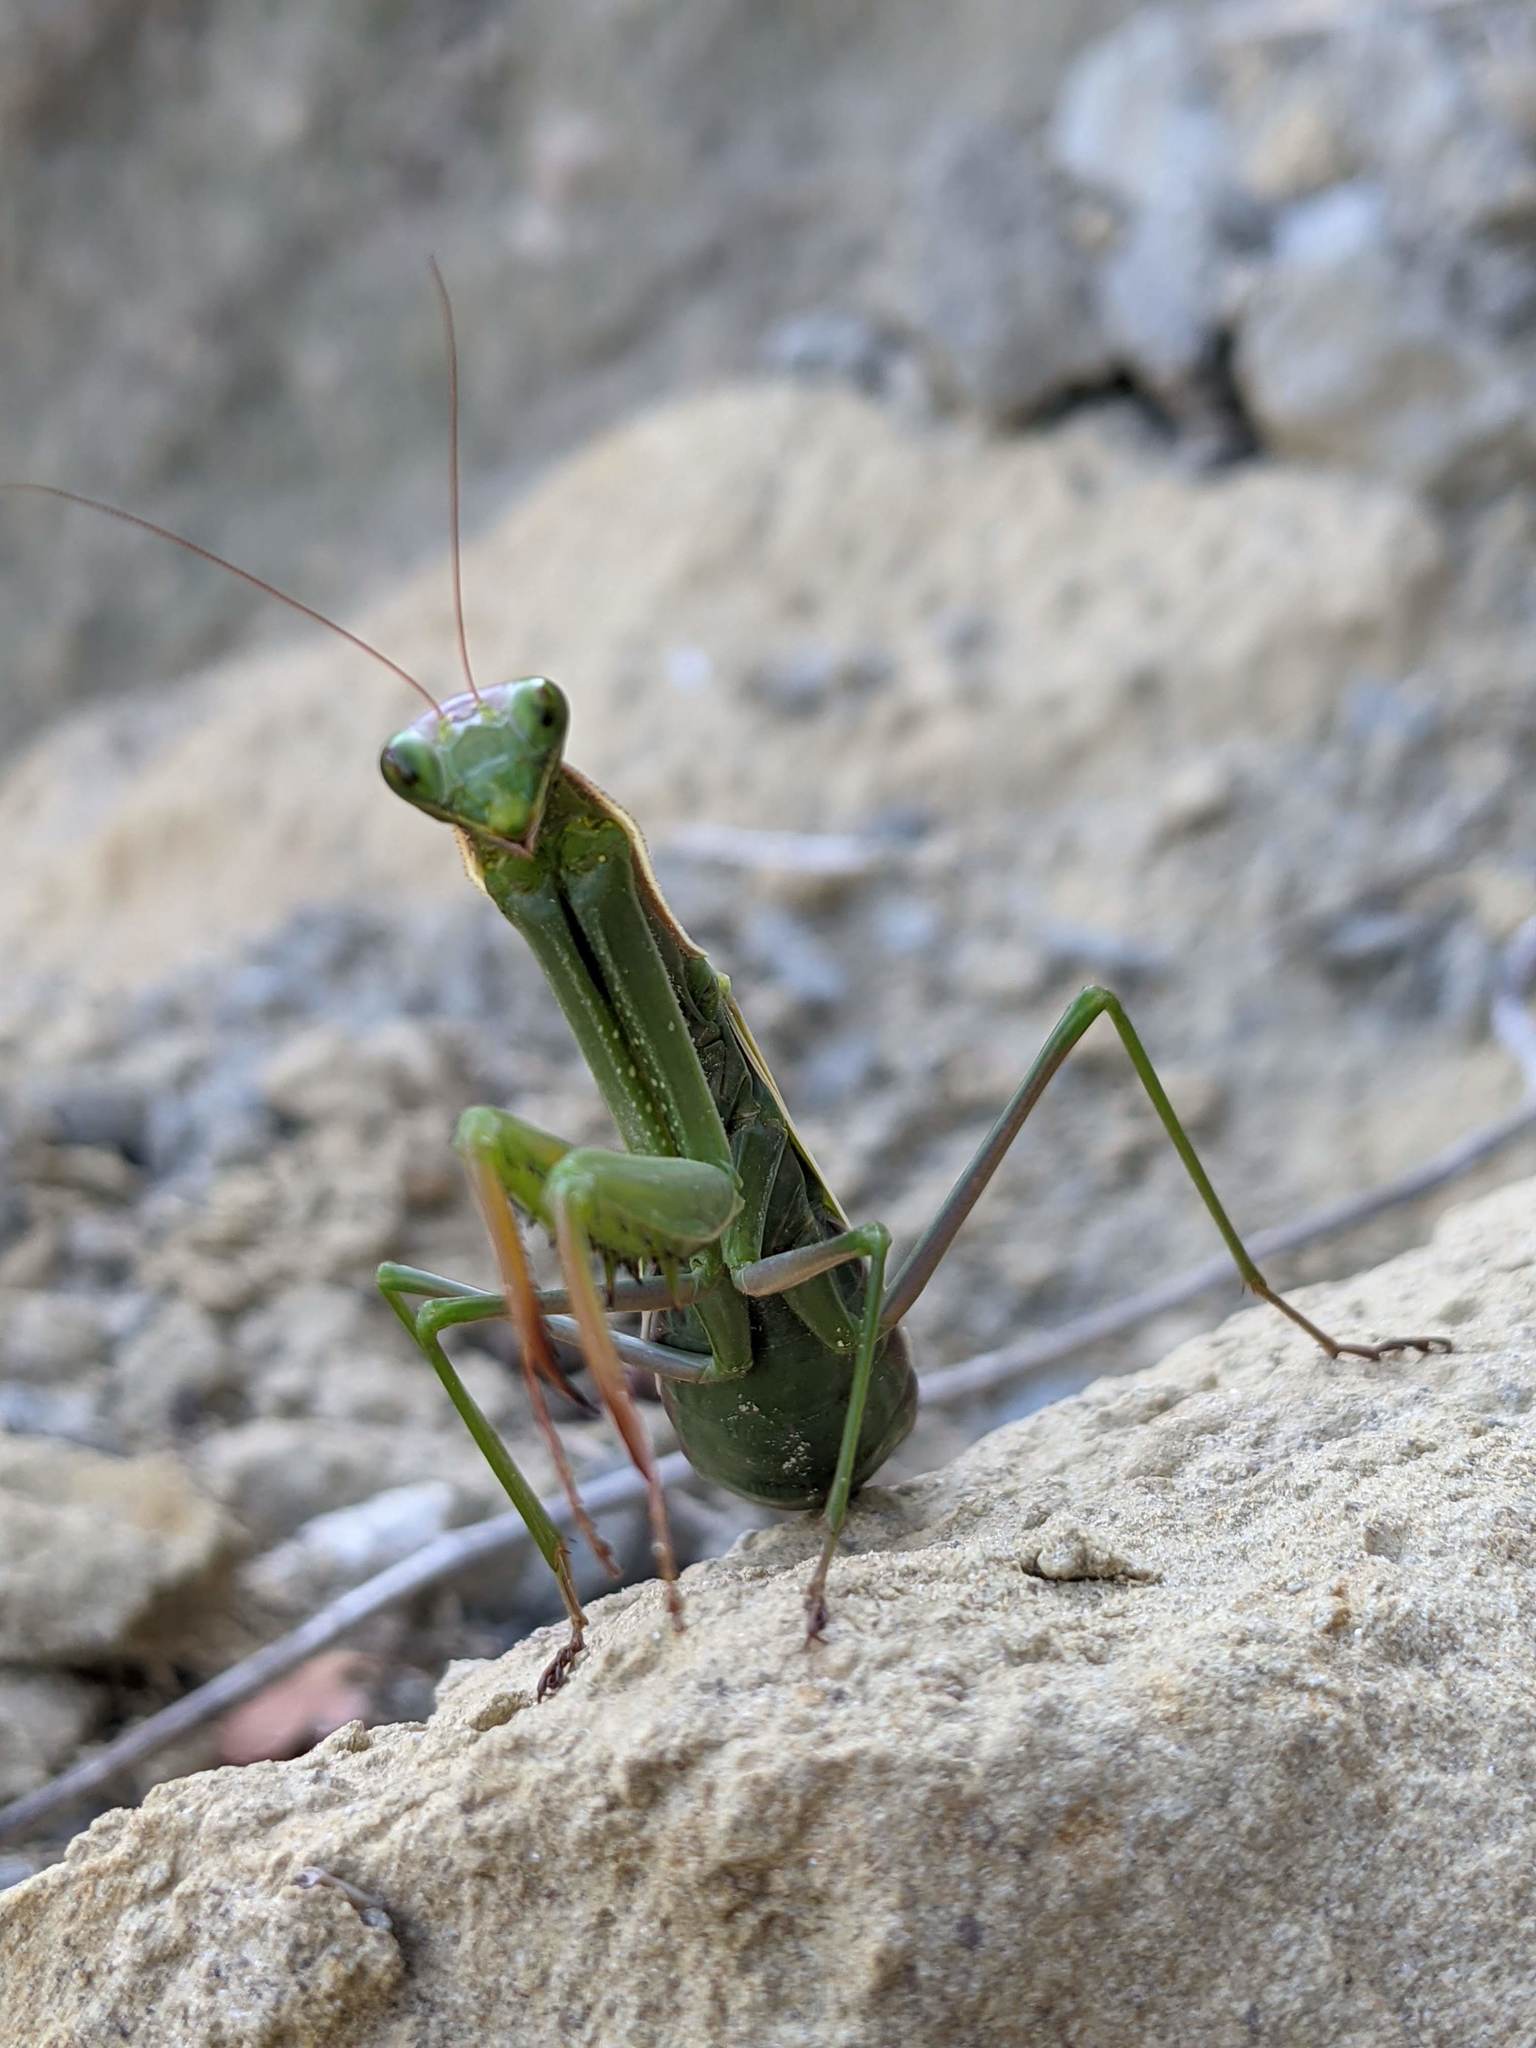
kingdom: Animalia
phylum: Arthropoda
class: Insecta
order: Mantodea
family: Mantidae
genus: Mantis
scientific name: Mantis religiosa
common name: Praying mantis
